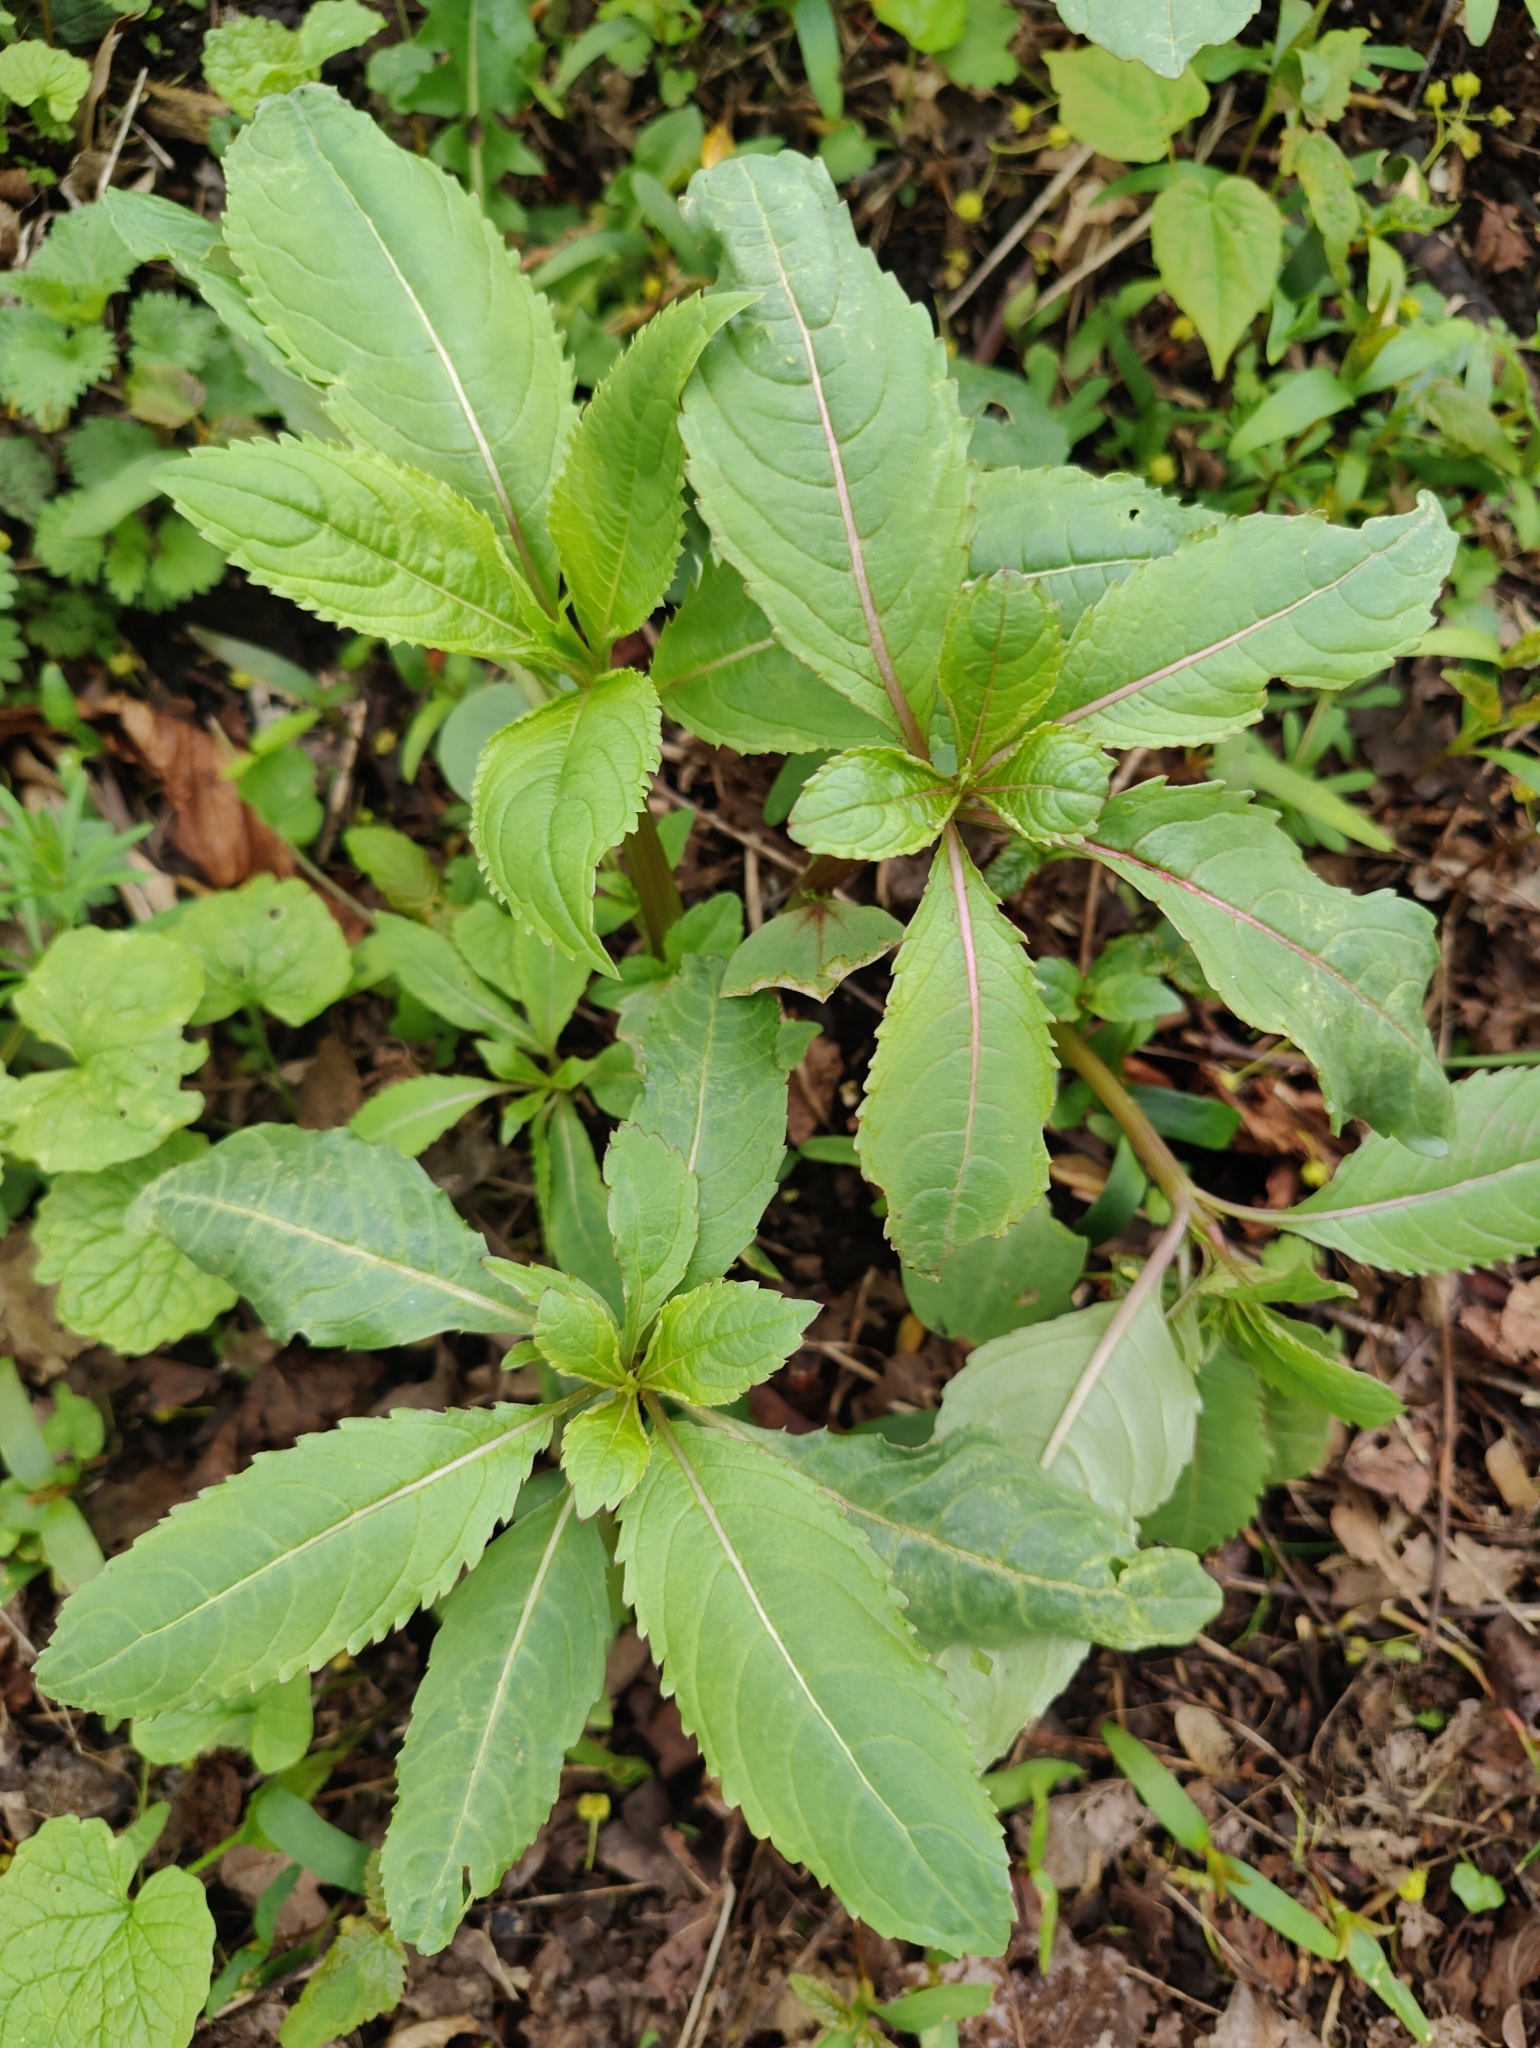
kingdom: Plantae
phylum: Tracheophyta
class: Magnoliopsida
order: Ericales
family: Balsaminaceae
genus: Impatiens
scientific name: Impatiens glandulifera
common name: Himalayan balsam
